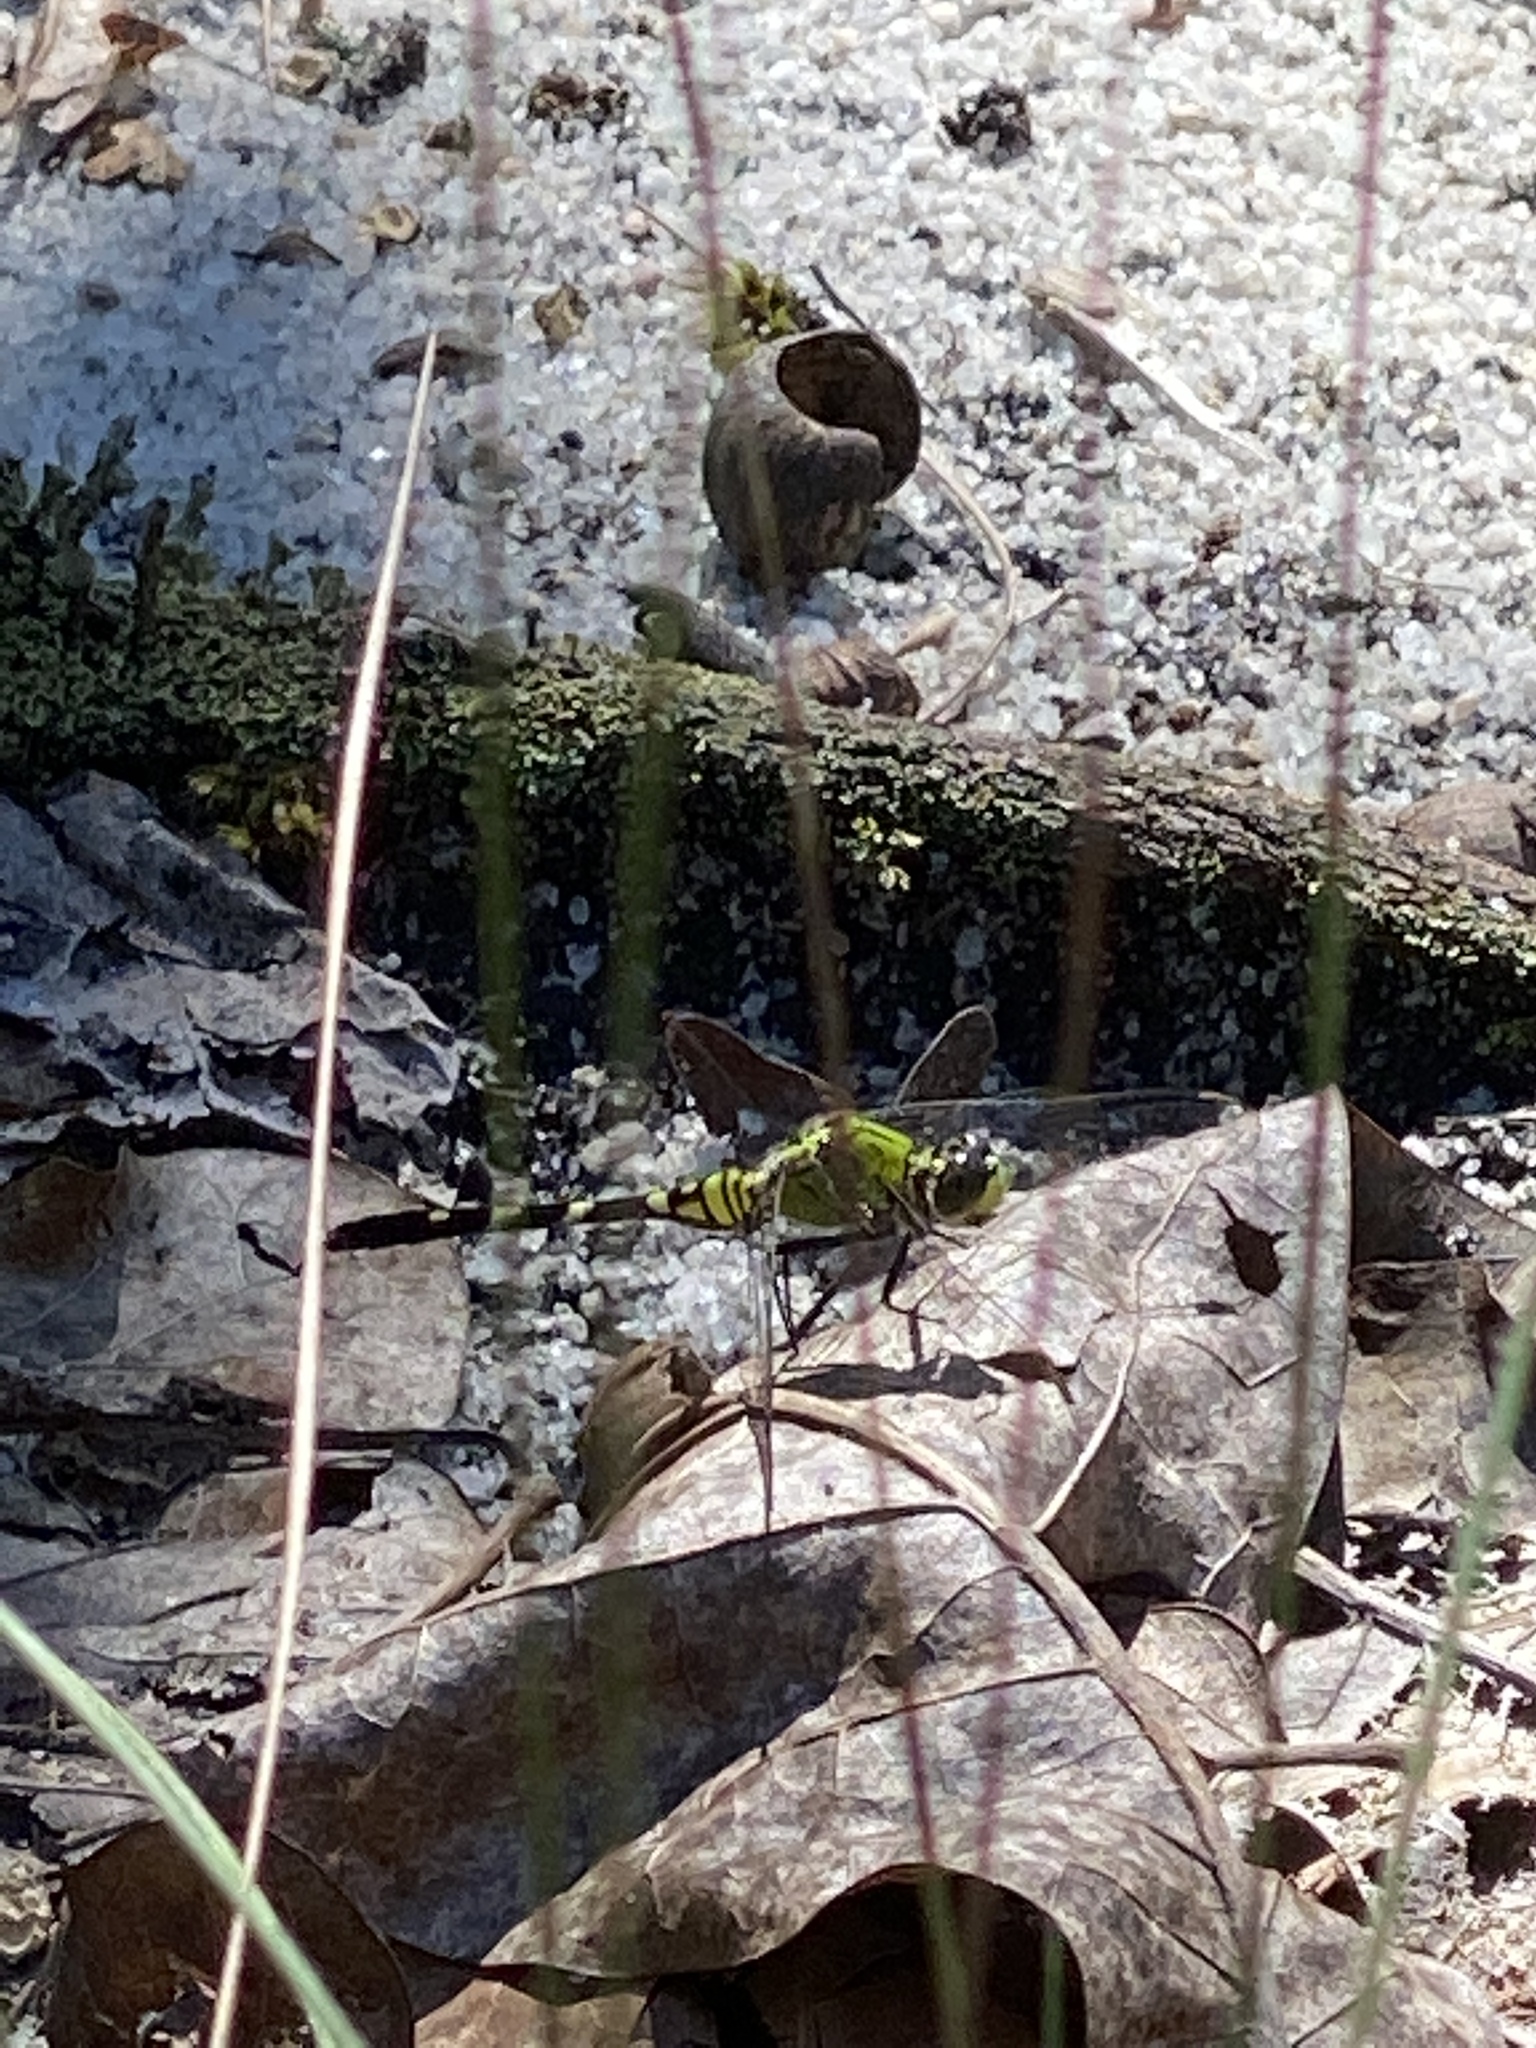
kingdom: Animalia
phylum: Arthropoda
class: Insecta
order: Odonata
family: Libellulidae
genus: Erythemis
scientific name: Erythemis simplicicollis
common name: Eastern pondhawk
